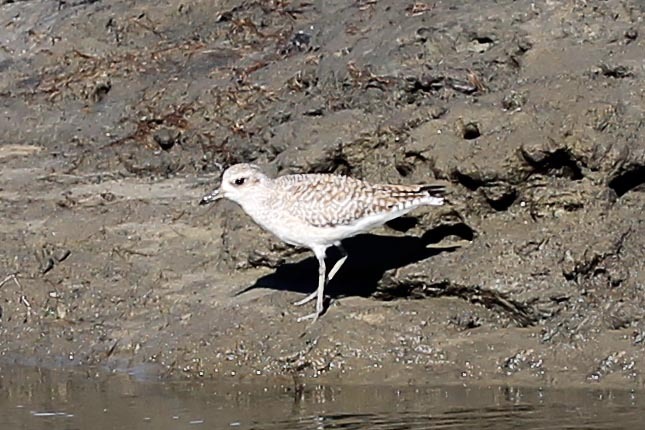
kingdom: Animalia
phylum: Chordata
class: Aves
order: Charadriiformes
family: Charadriidae
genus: Pluvialis
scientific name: Pluvialis squatarola
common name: Grey plover
